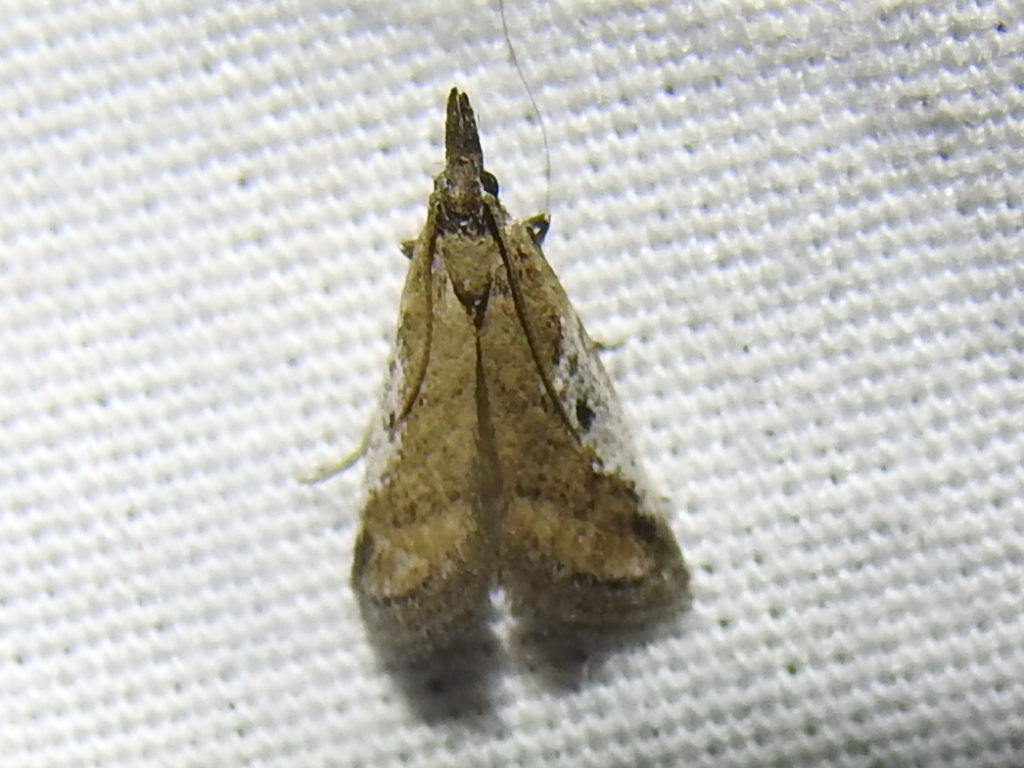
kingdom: Animalia
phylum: Arthropoda
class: Insecta
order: Lepidoptera
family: Pyralidae
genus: Alpheias
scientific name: Alpheias oculiferalis
